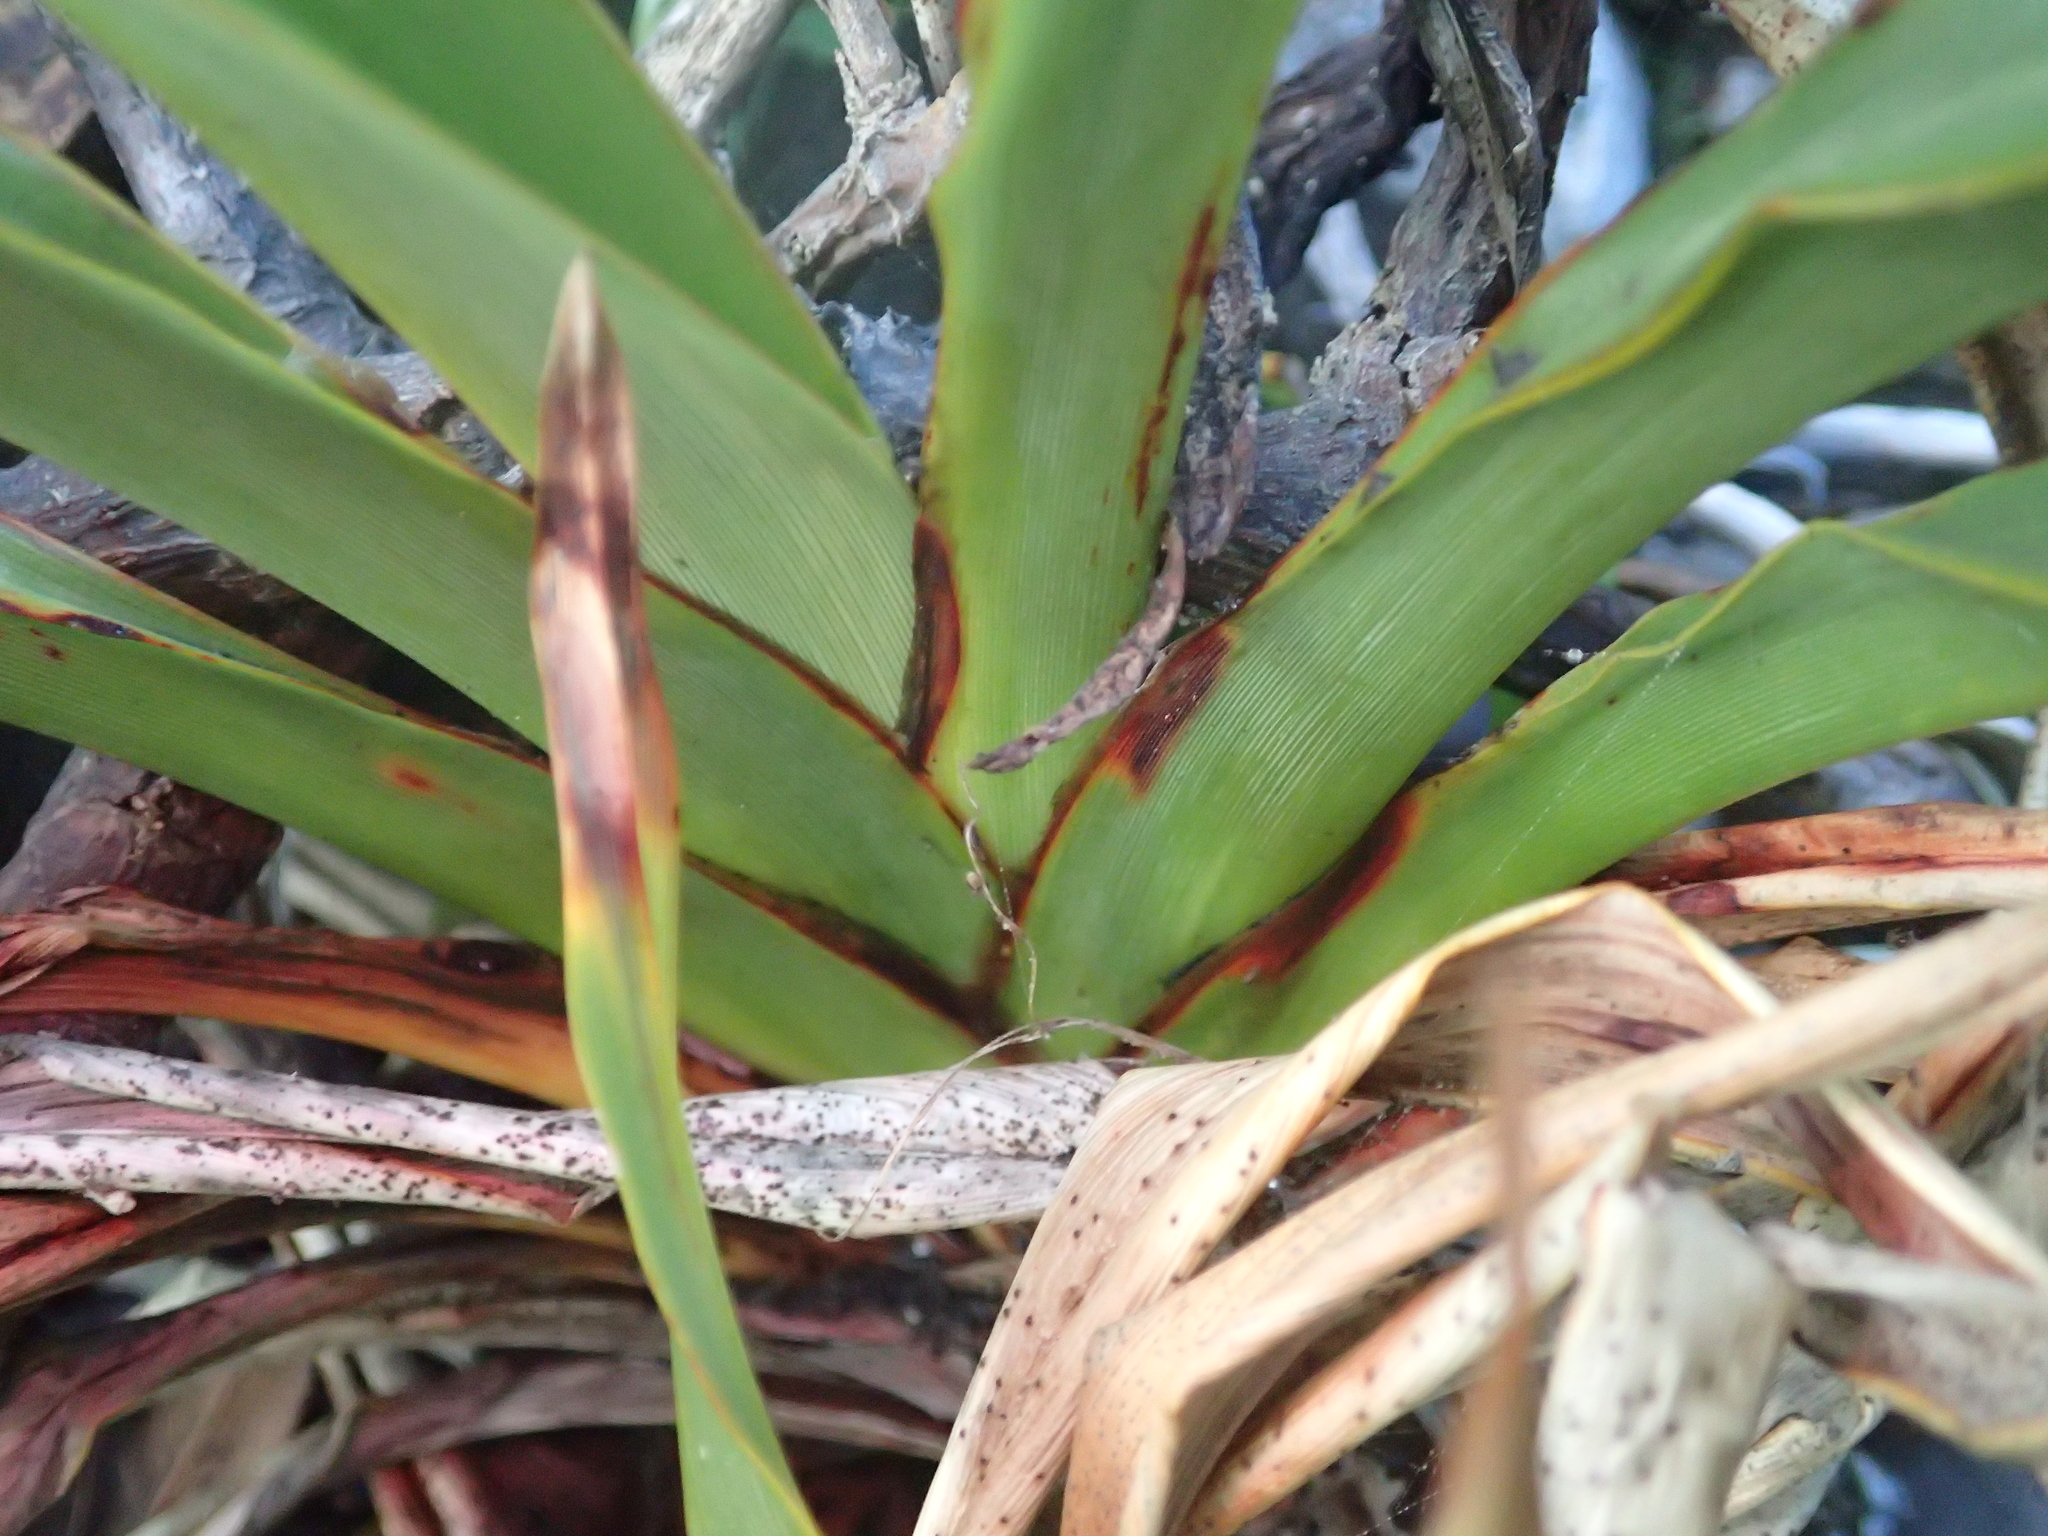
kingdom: Plantae
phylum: Tracheophyta
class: Liliopsida
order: Asparagales
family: Asphodelaceae
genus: Phormium
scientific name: Phormium colensoi
